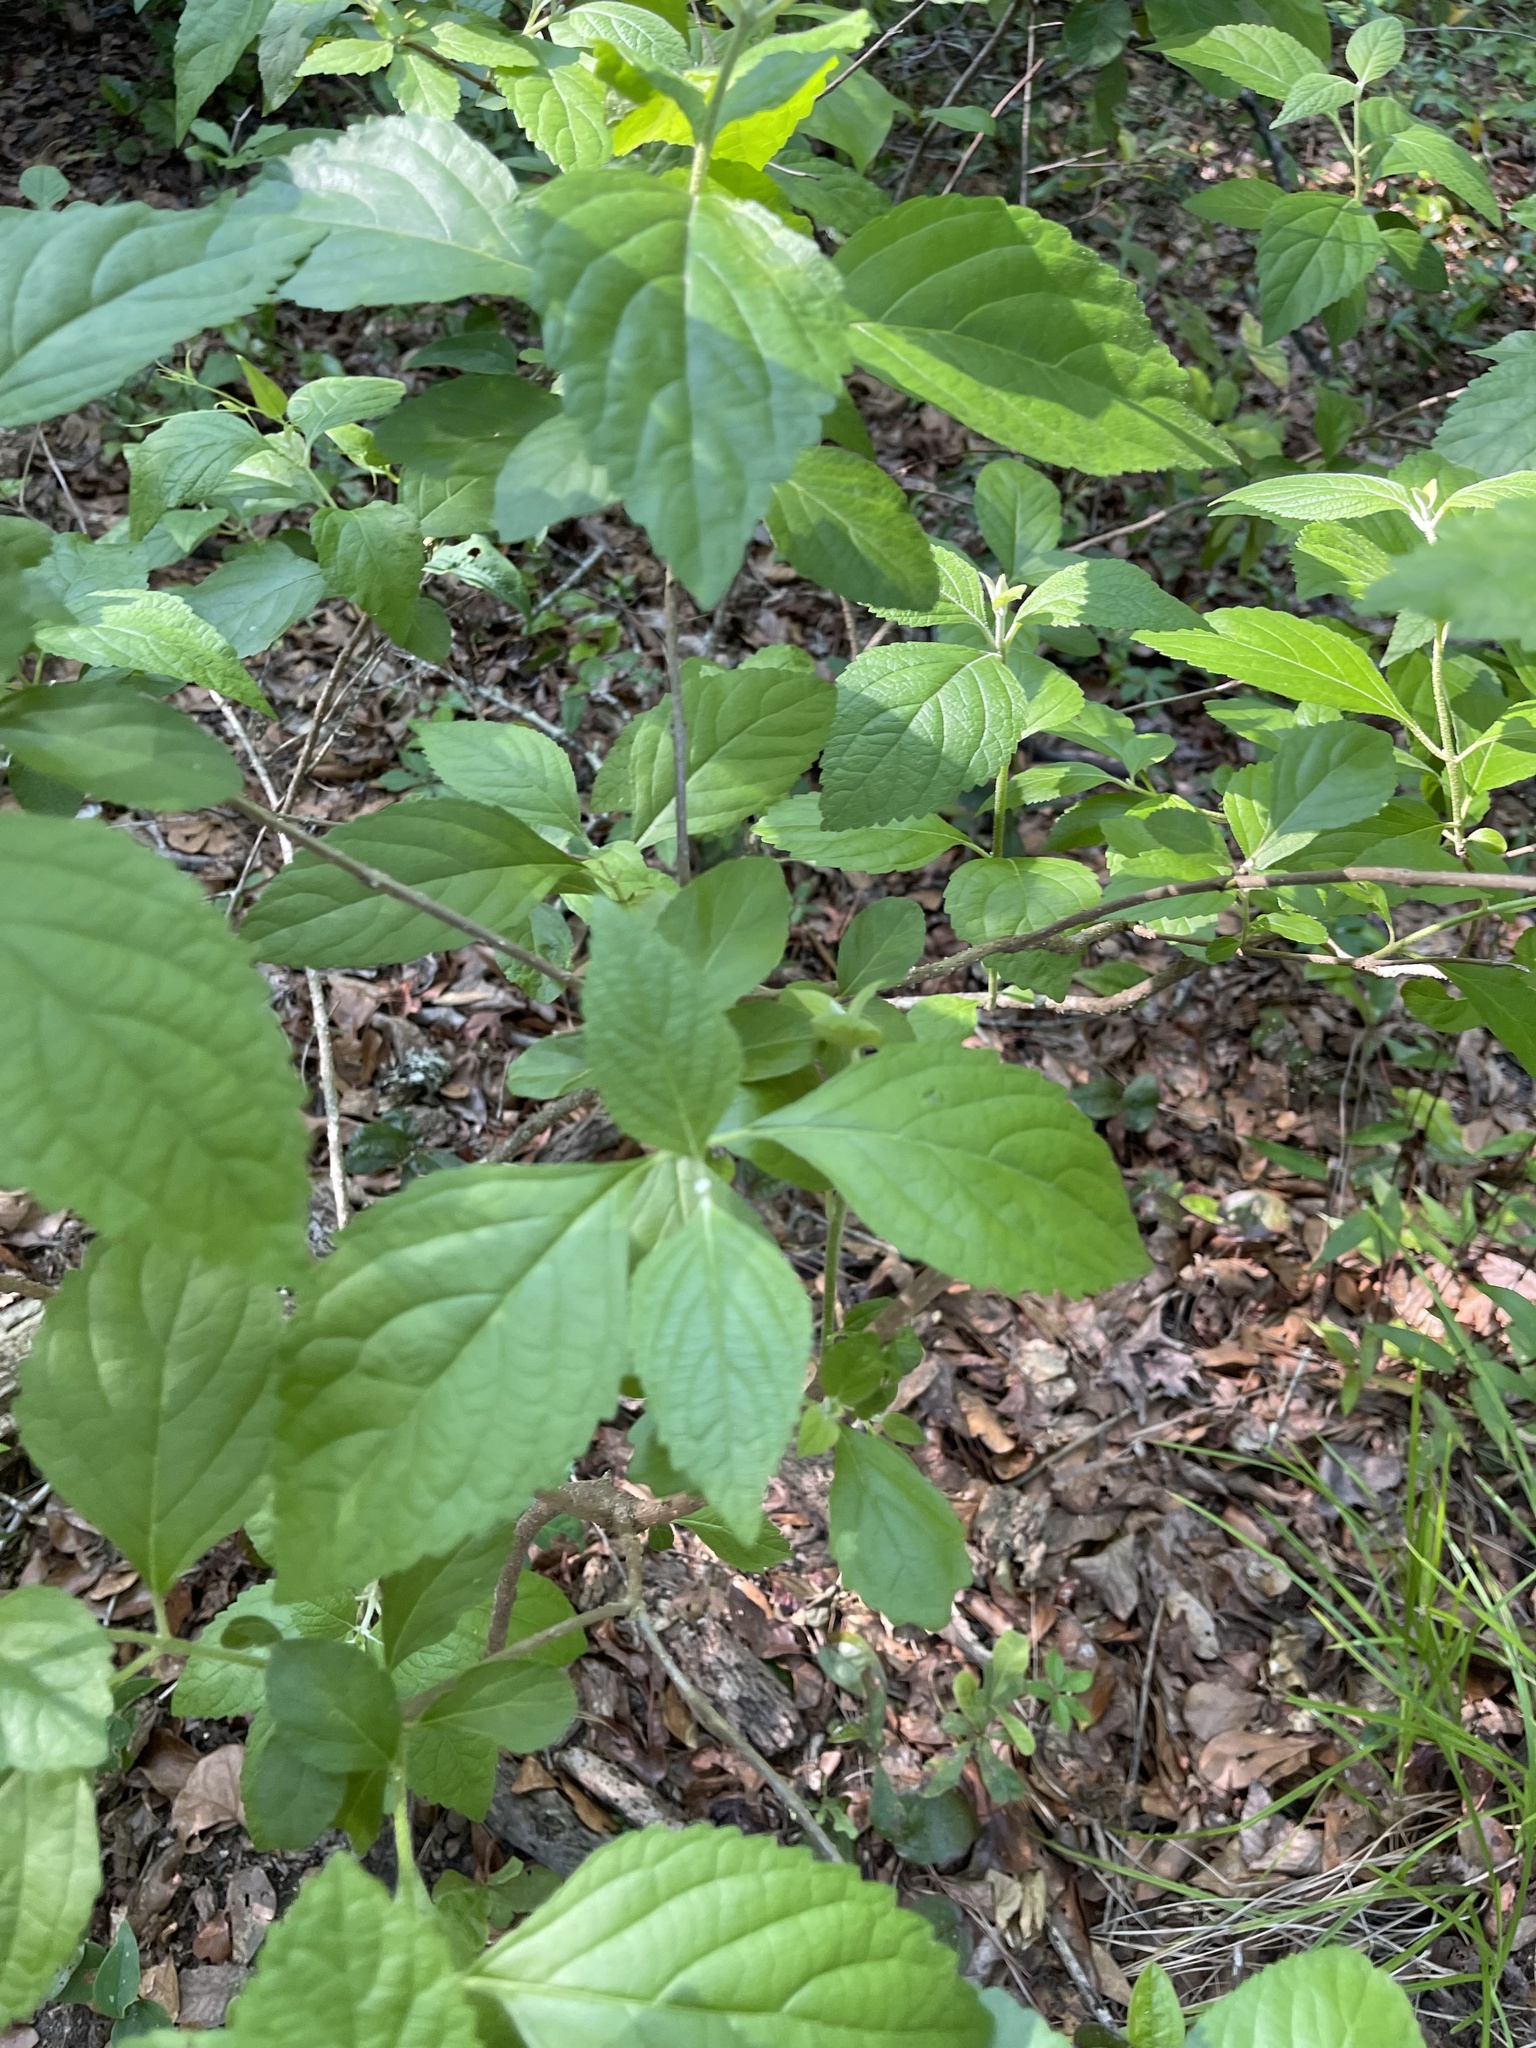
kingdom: Plantae
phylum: Tracheophyta
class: Magnoliopsida
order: Lamiales
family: Lamiaceae
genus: Callicarpa
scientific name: Callicarpa americana
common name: American beautyberry
